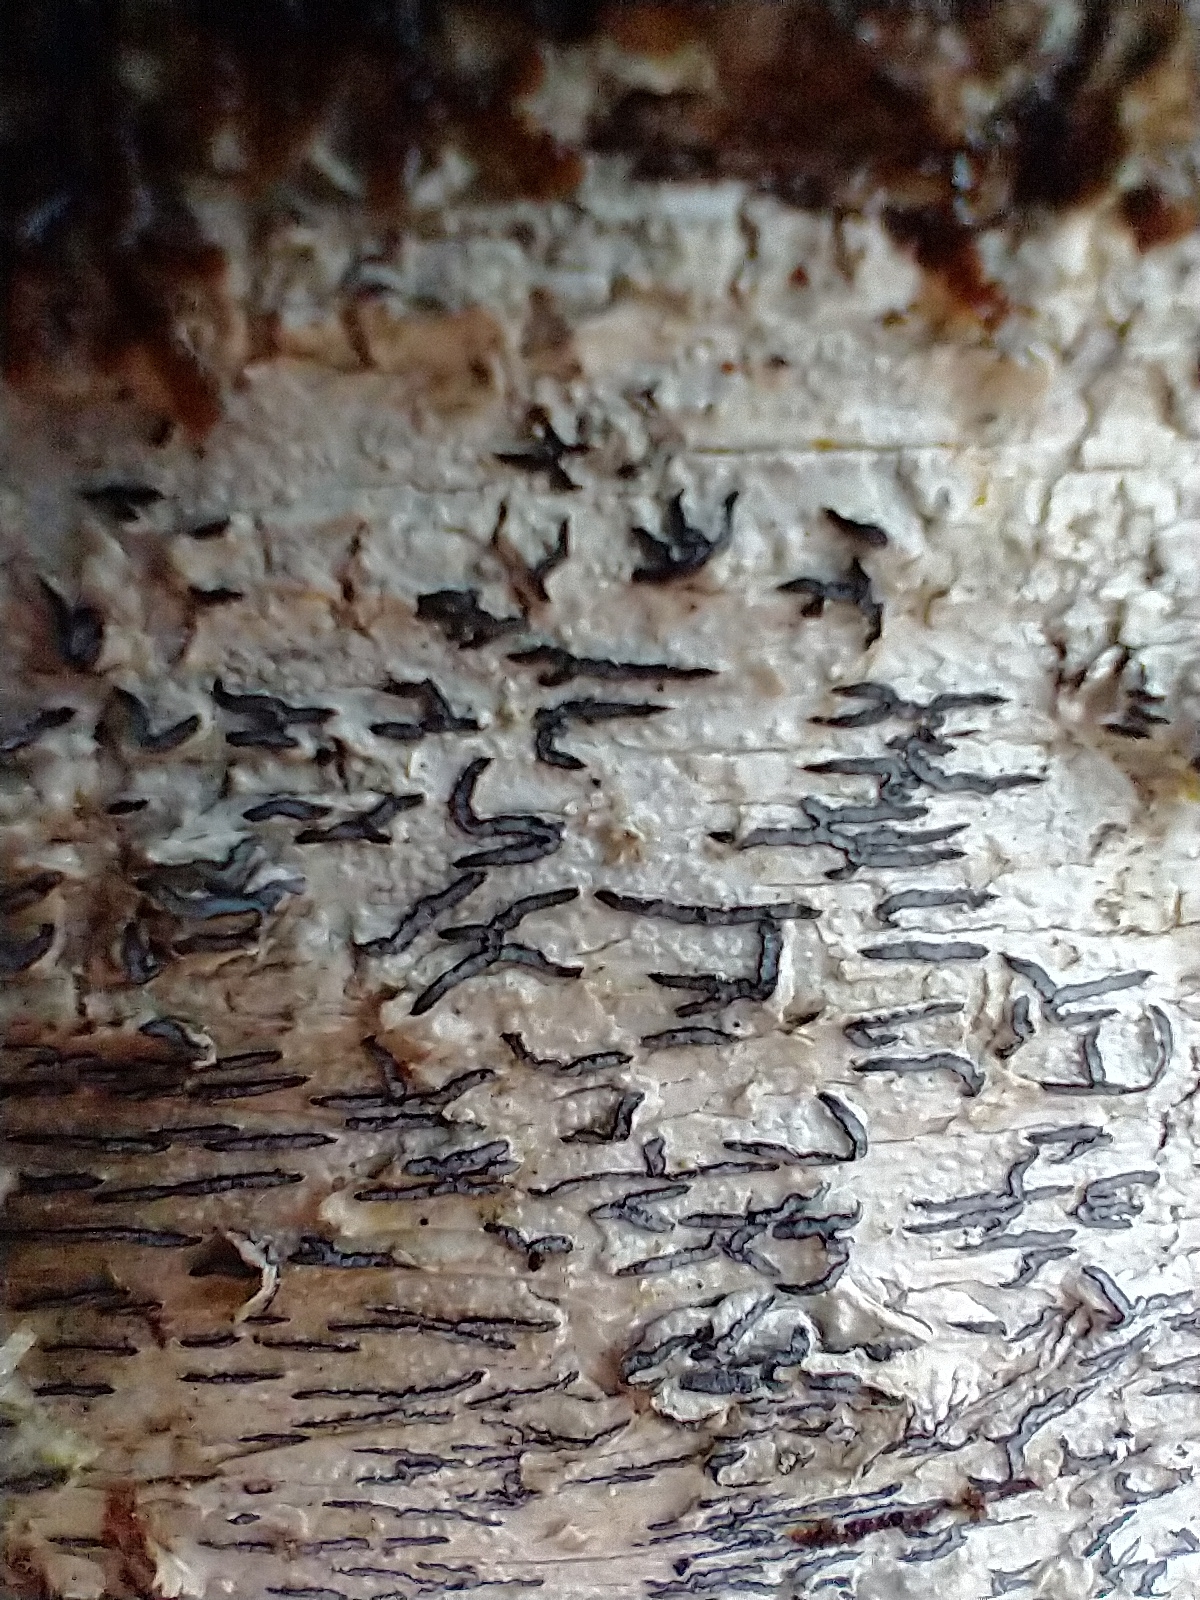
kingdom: Fungi
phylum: Ascomycota
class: Lecanoromycetes
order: Ostropales
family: Graphidaceae
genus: Graphis
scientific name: Graphis scripta
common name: Script lichen
